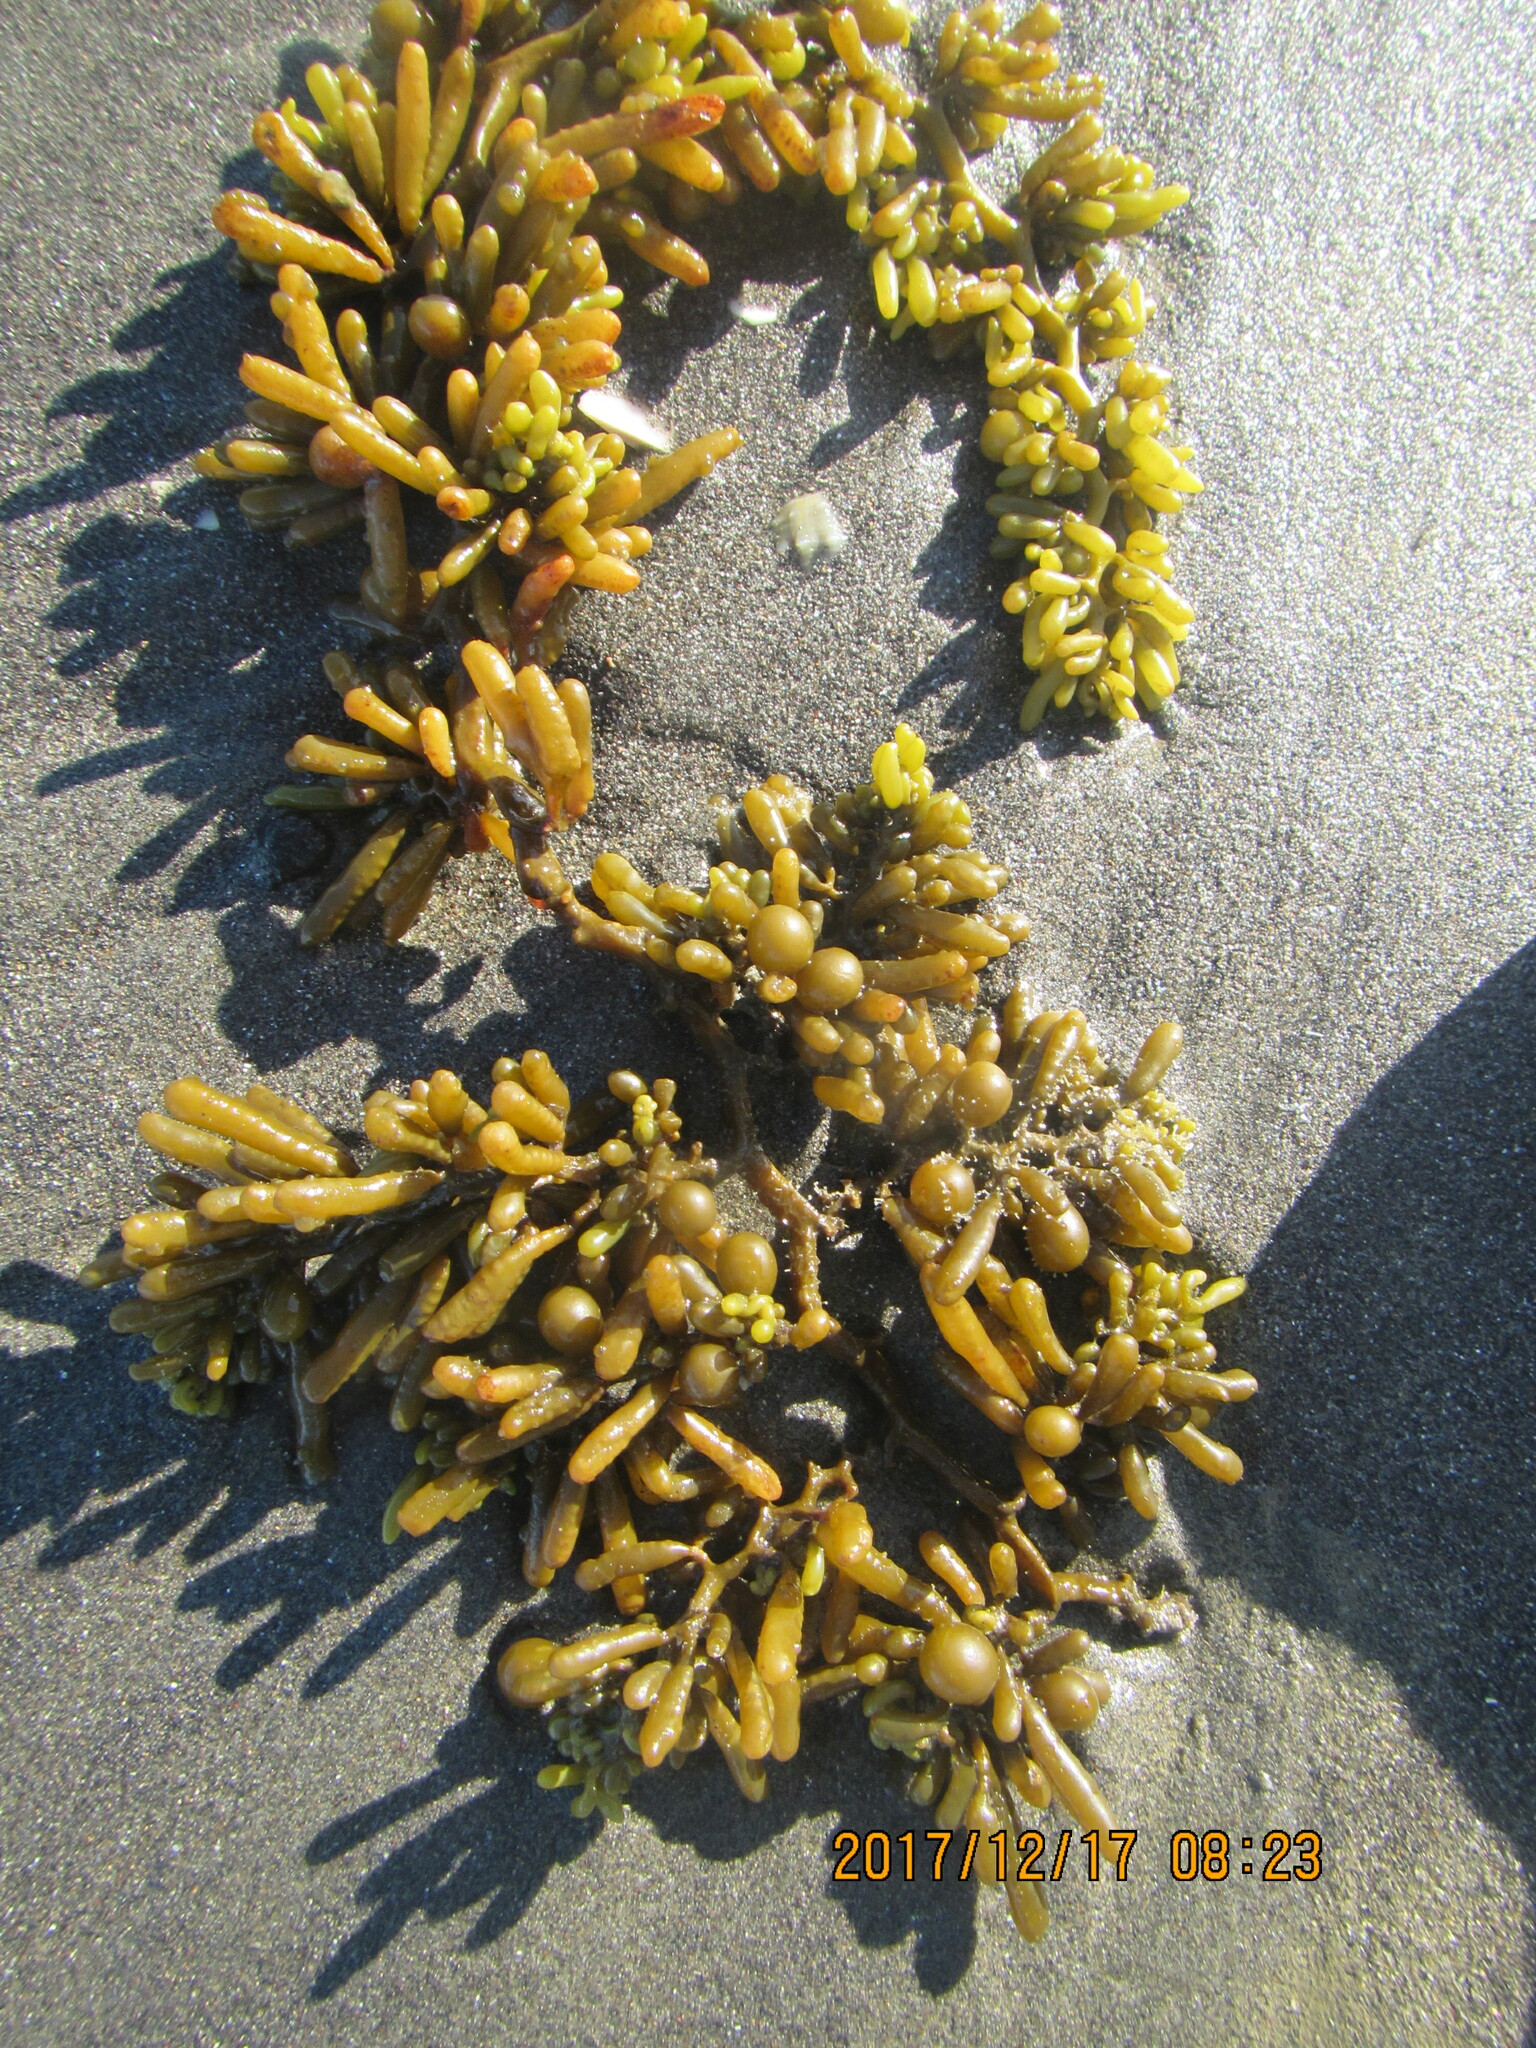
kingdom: Chromista
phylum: Ochrophyta
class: Phaeophyceae
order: Fucales
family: Sargassaceae
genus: Cystophora
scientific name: Cystophora torulosa
